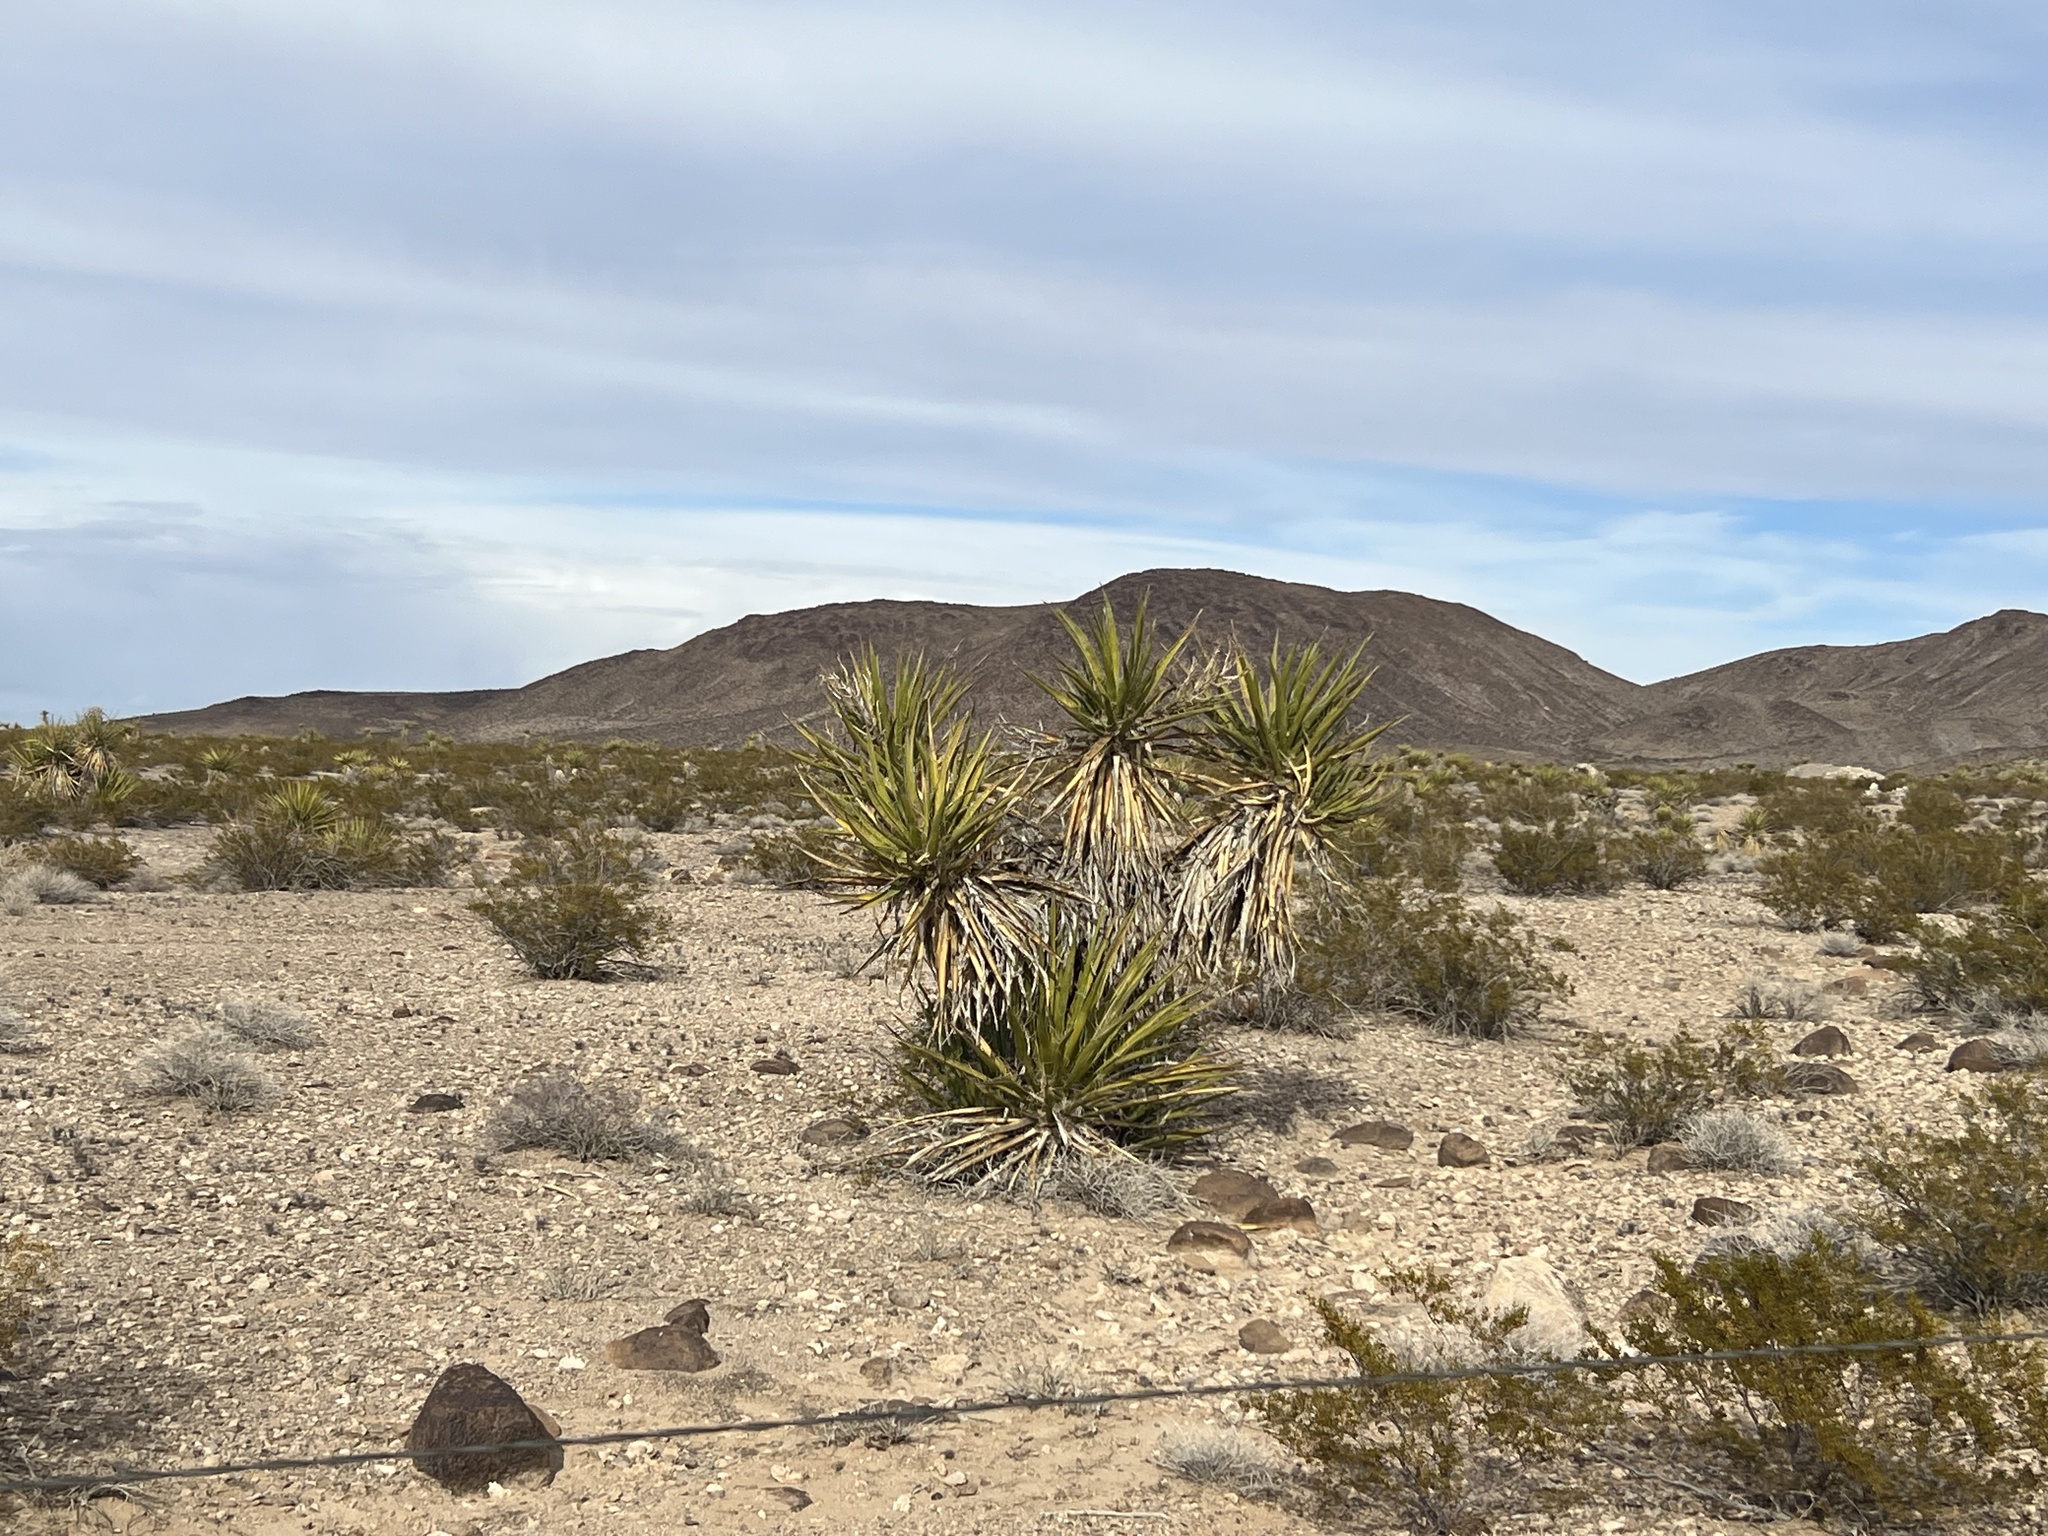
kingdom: Plantae
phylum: Tracheophyta
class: Liliopsida
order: Asparagales
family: Asparagaceae
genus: Yucca
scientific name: Yucca schidigera
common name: Mojave yucca
